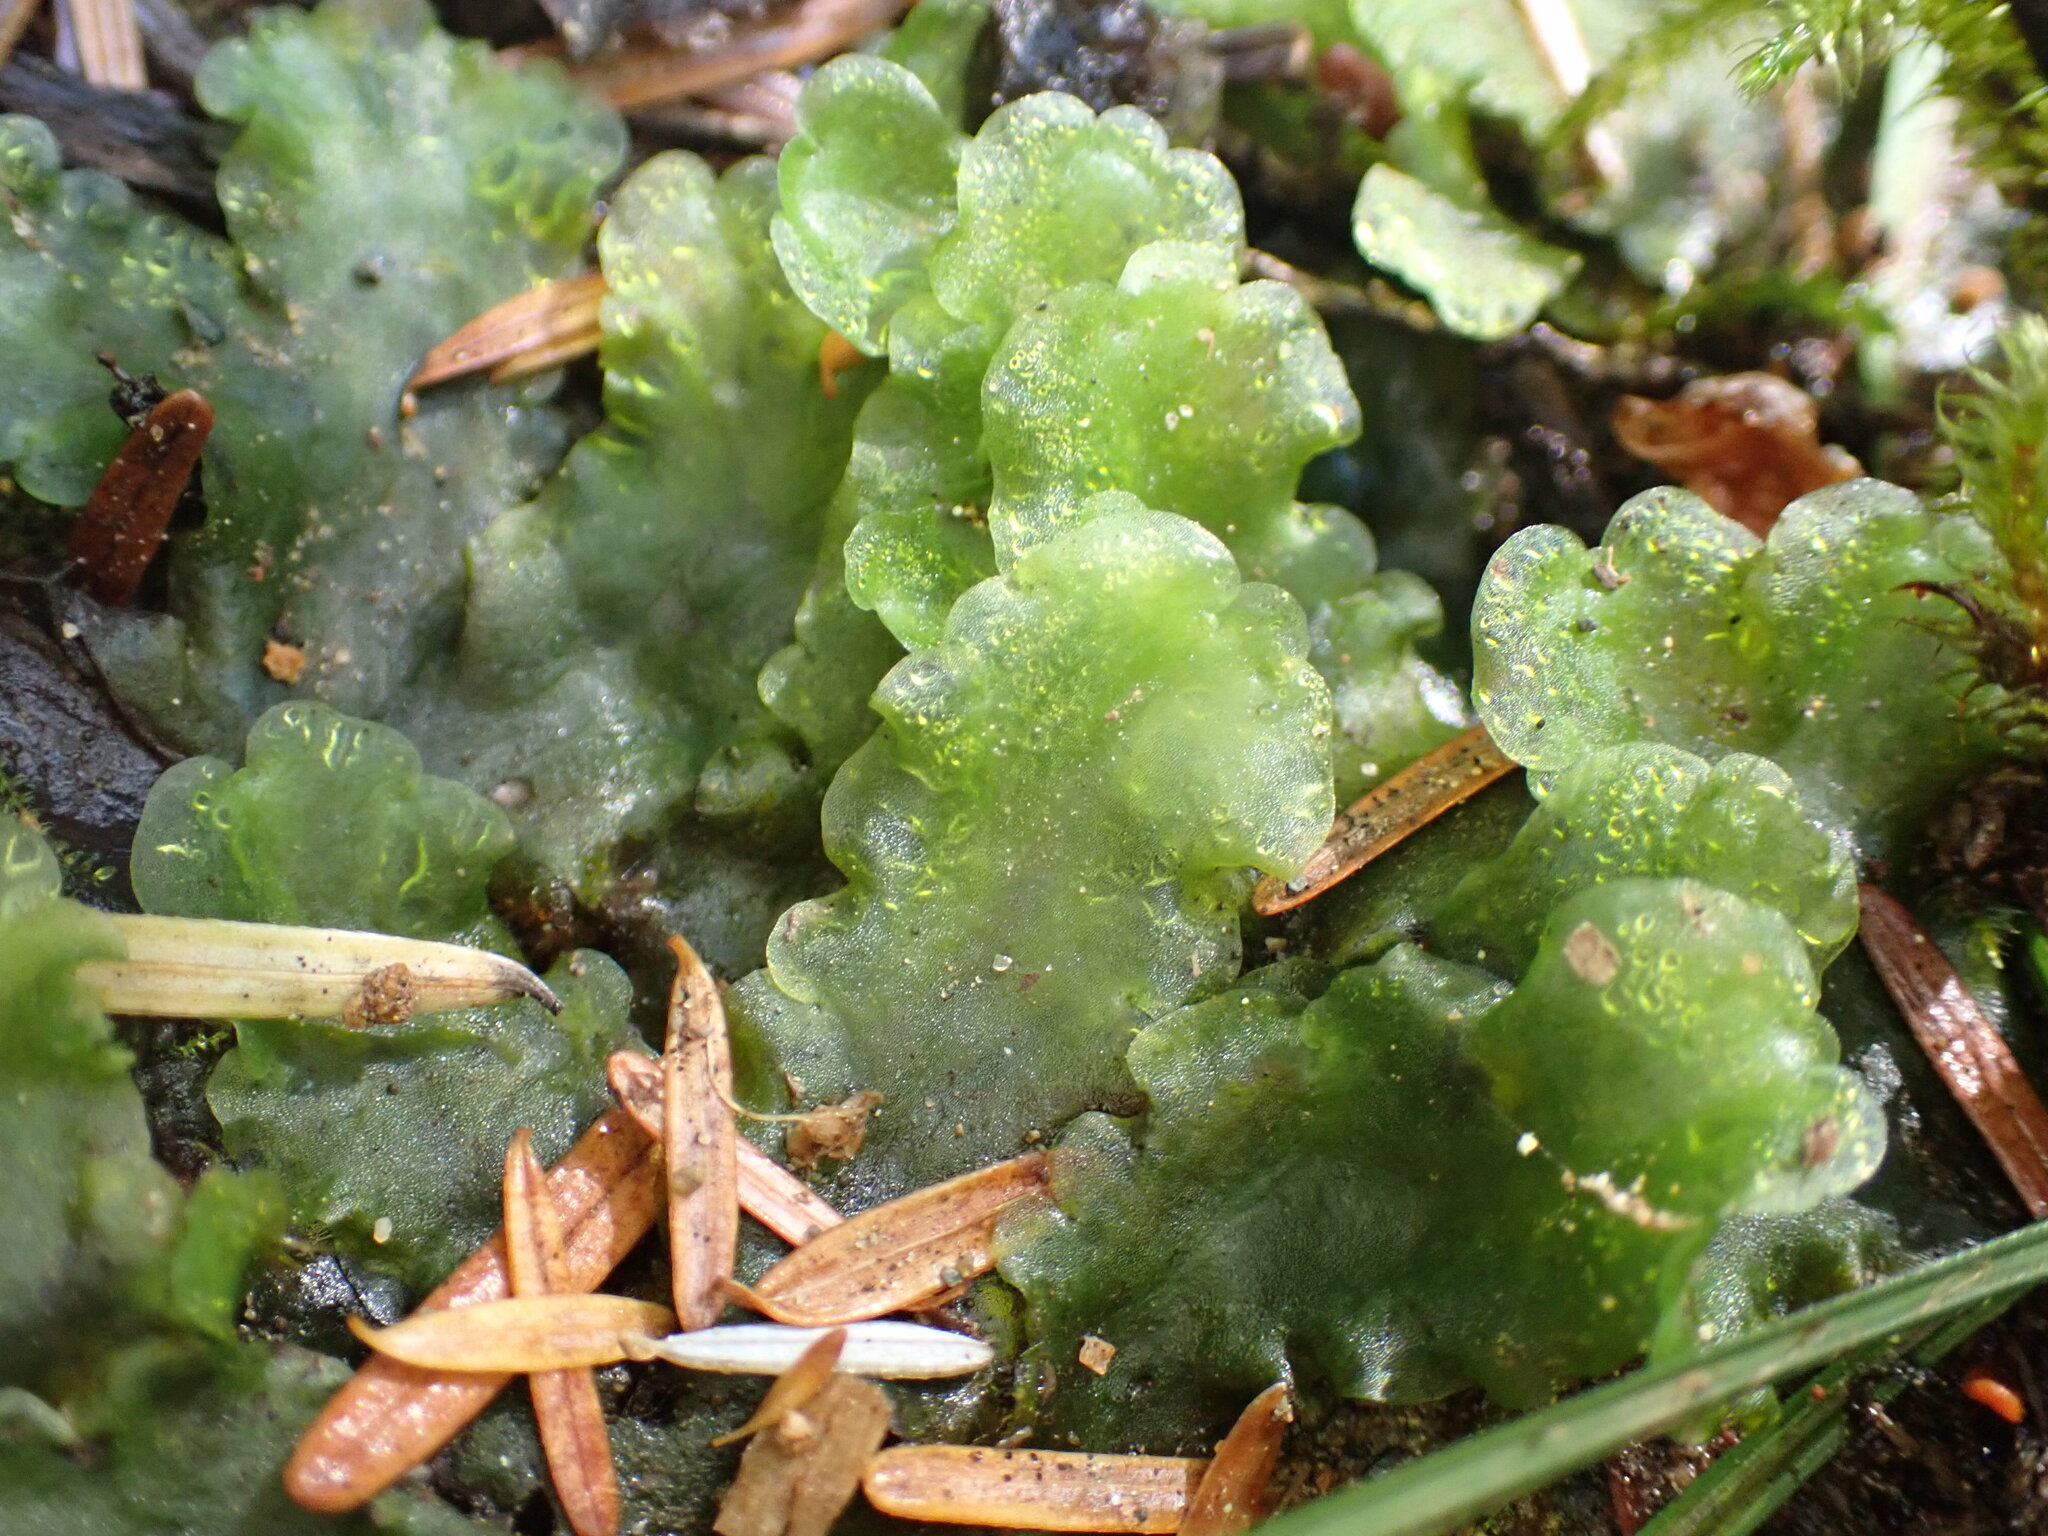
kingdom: Plantae
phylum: Marchantiophyta
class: Jungermanniopsida
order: Pelliales
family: Pelliaceae
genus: Pellia
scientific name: Pellia neesiana
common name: Nees  pellia
